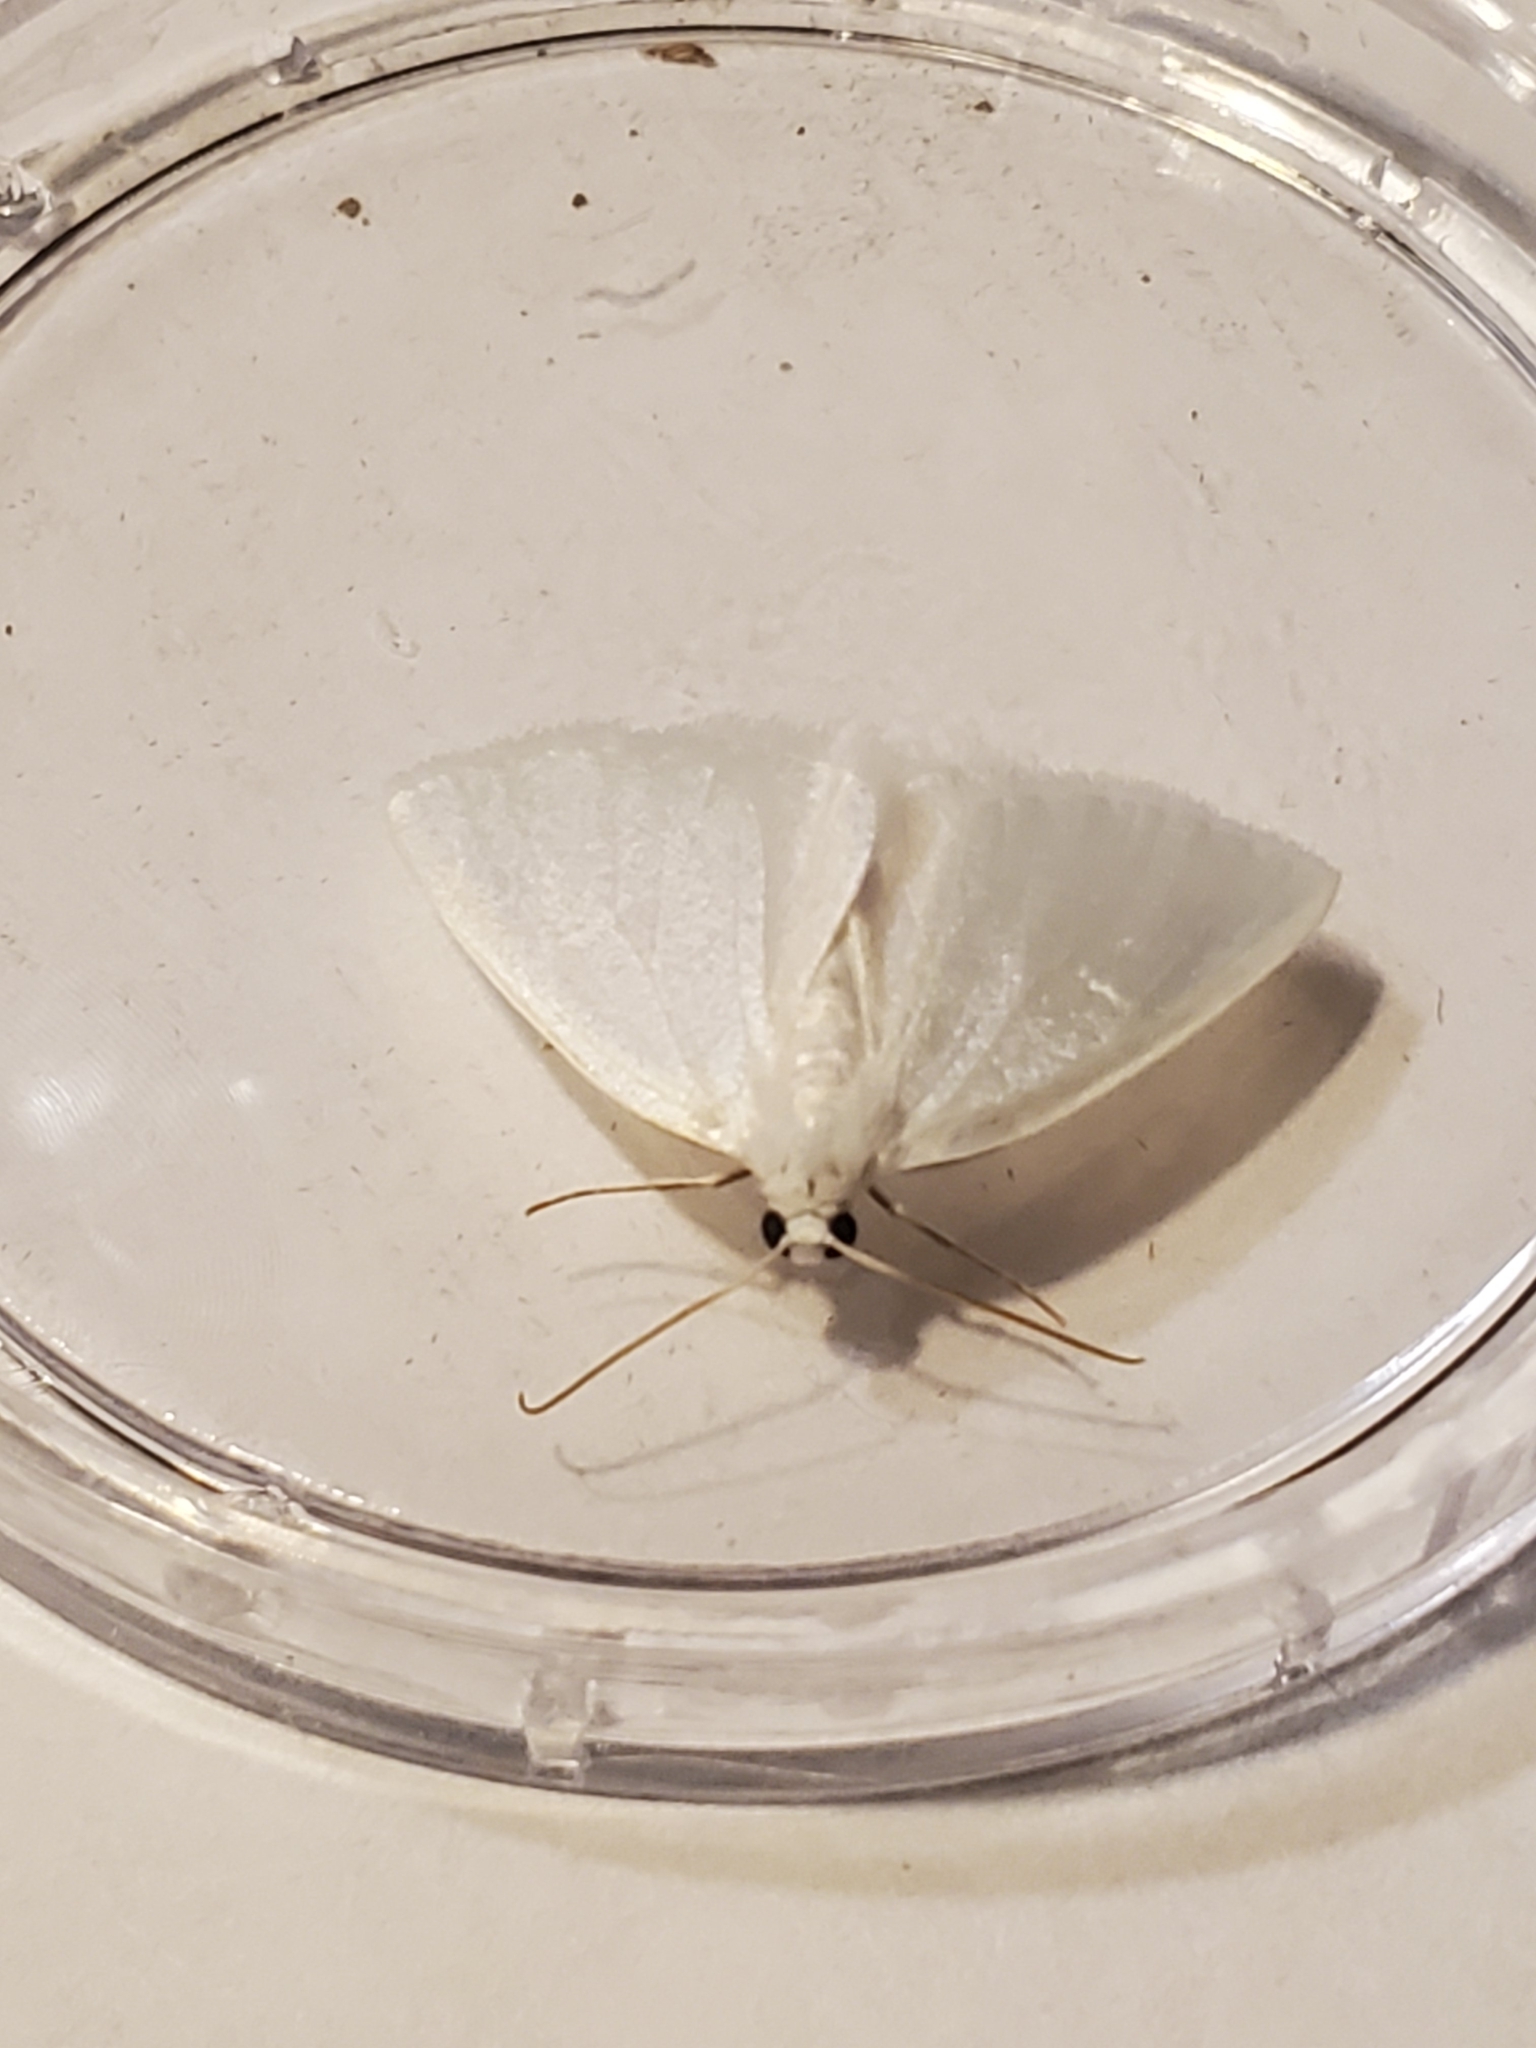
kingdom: Animalia
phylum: Arthropoda
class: Insecta
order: Lepidoptera
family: Geometridae
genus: Lomographa
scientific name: Lomographa vestaliata
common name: White spring moth
